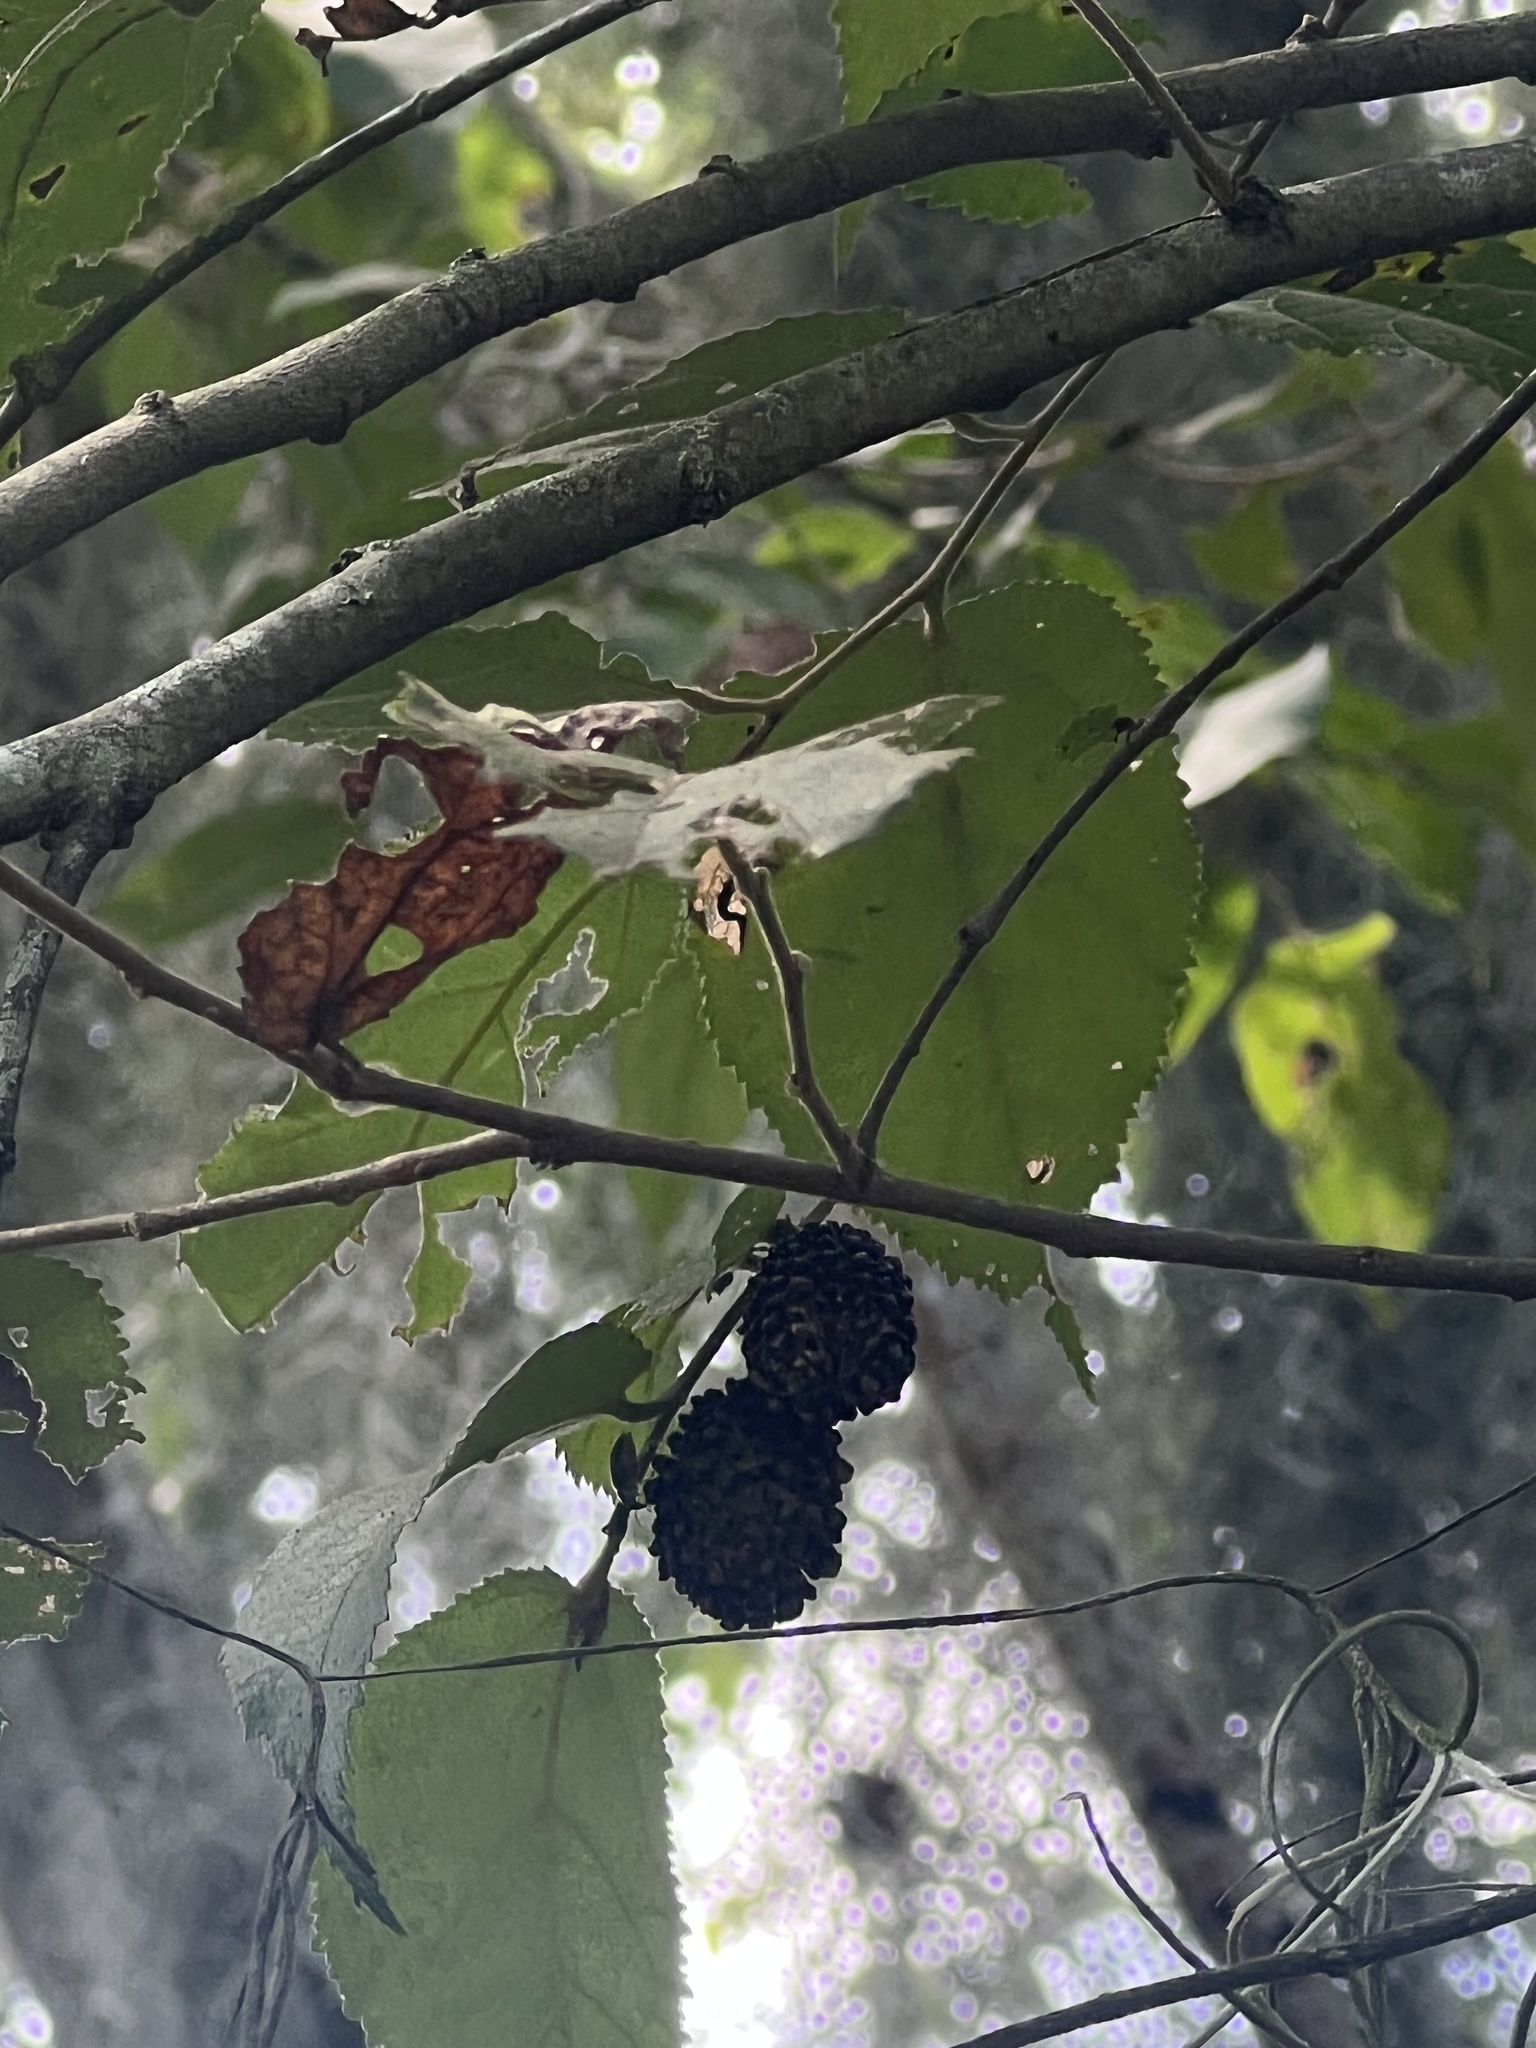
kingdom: Plantae
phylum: Tracheophyta
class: Magnoliopsida
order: Malvales
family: Malvaceae
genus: Guazuma
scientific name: Guazuma ulmifolia
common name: Bastard-cedar
